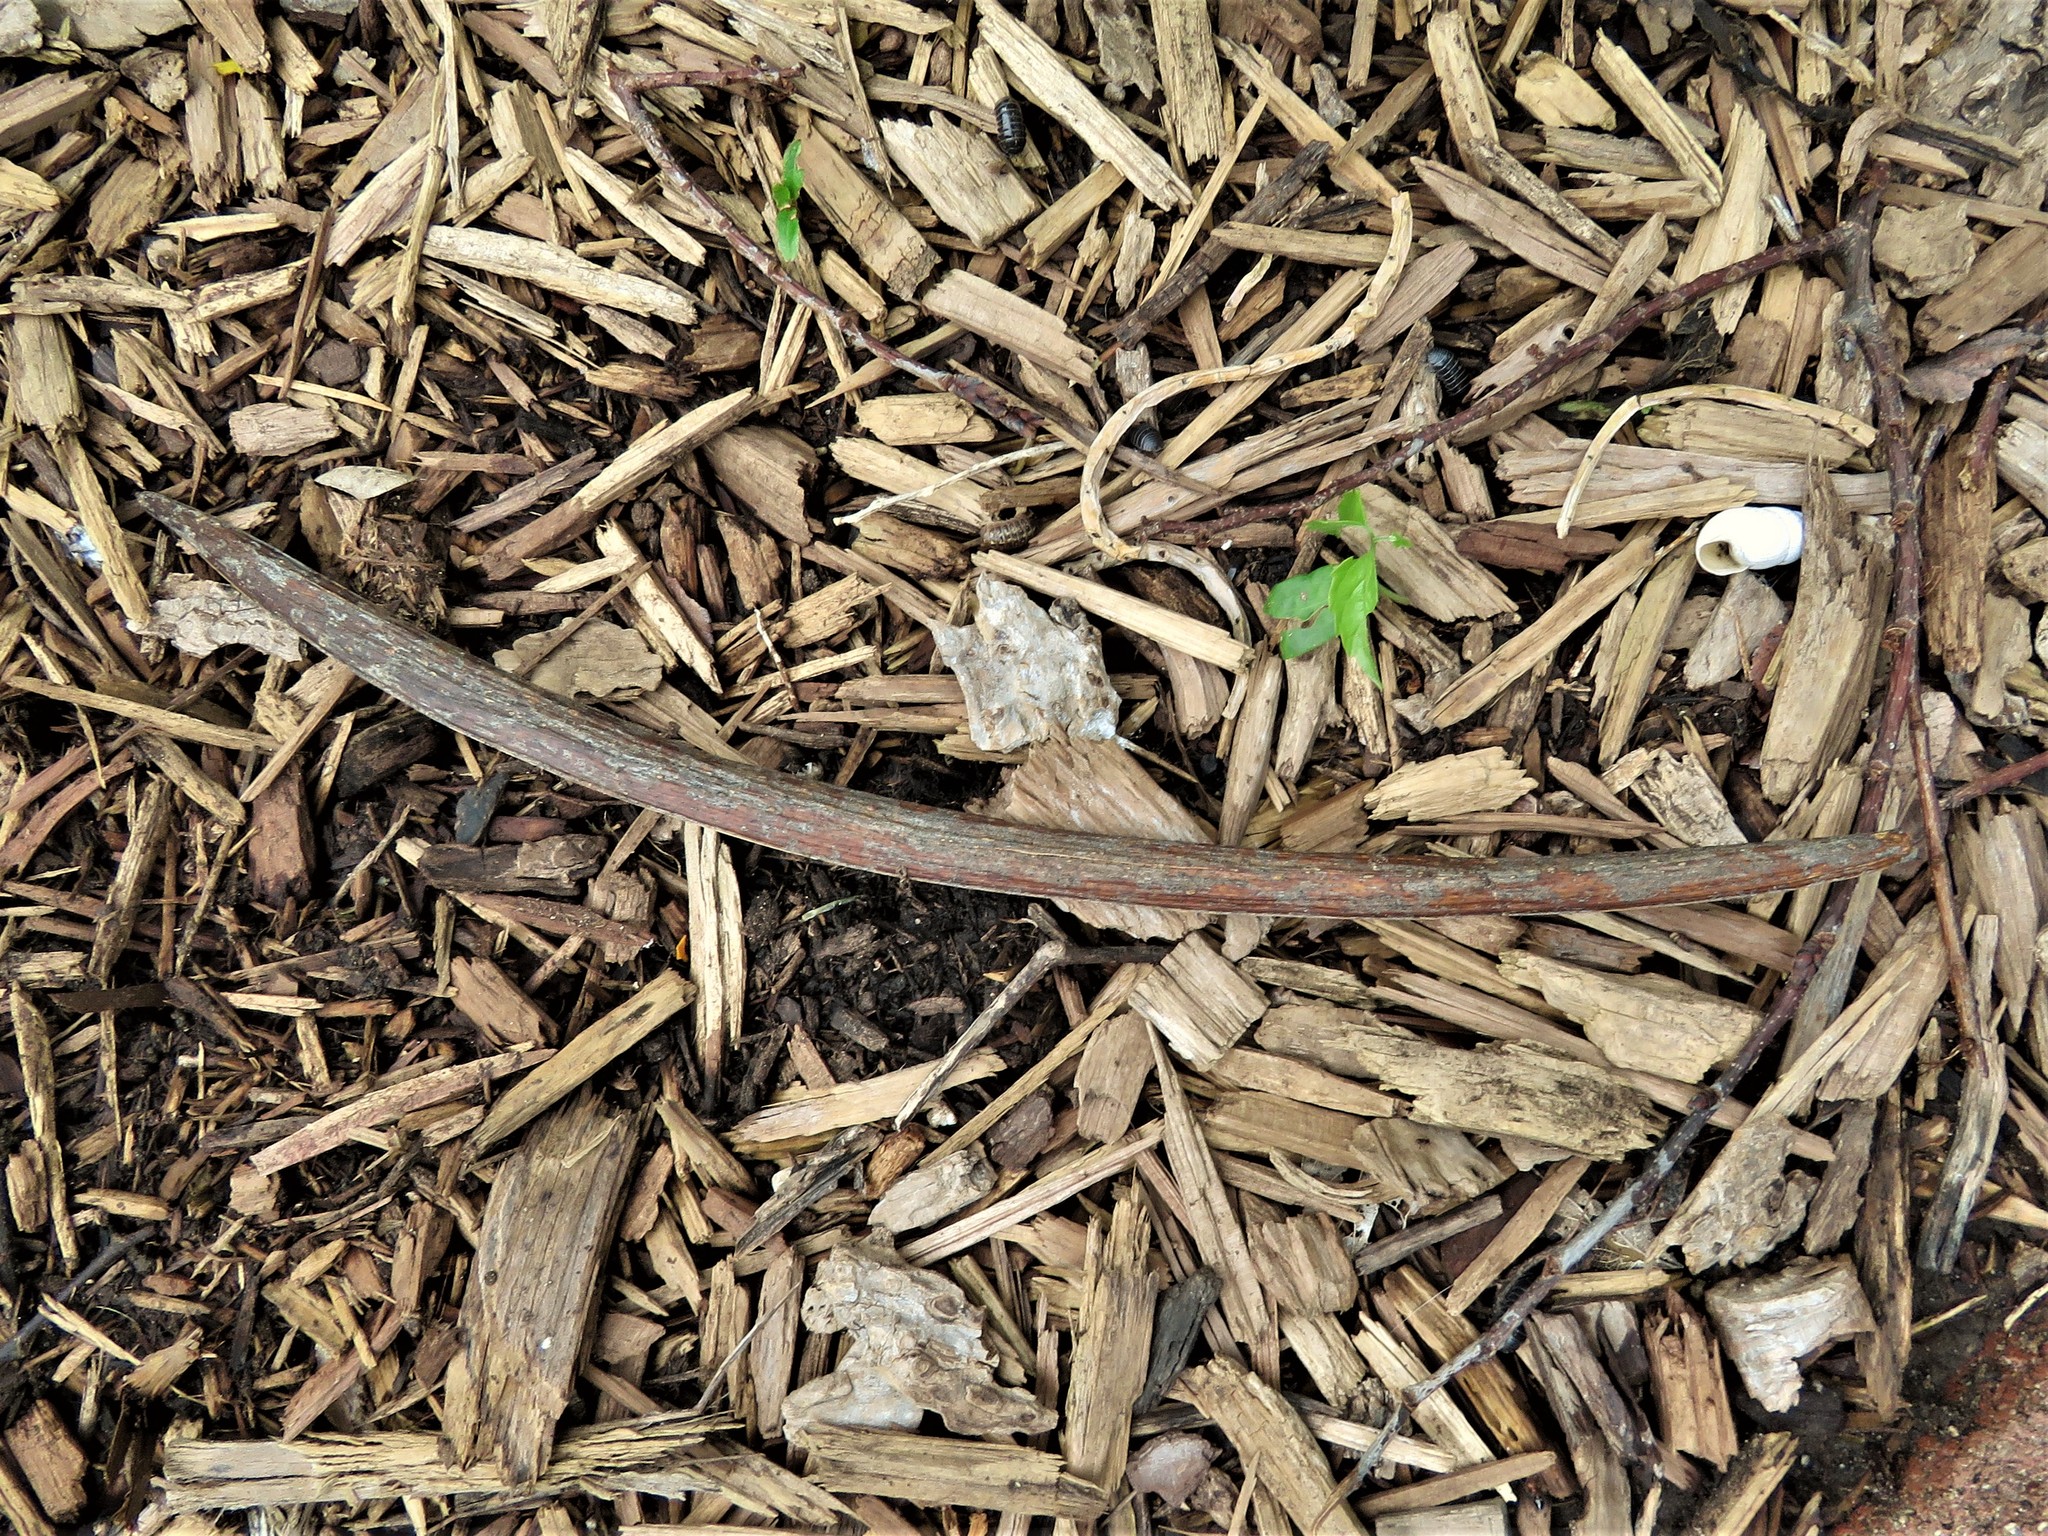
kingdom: Plantae
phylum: Tracheophyta
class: Magnoliopsida
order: Lamiales
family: Bignoniaceae
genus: Catalpa
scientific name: Catalpa speciosa
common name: Northern catalpa
